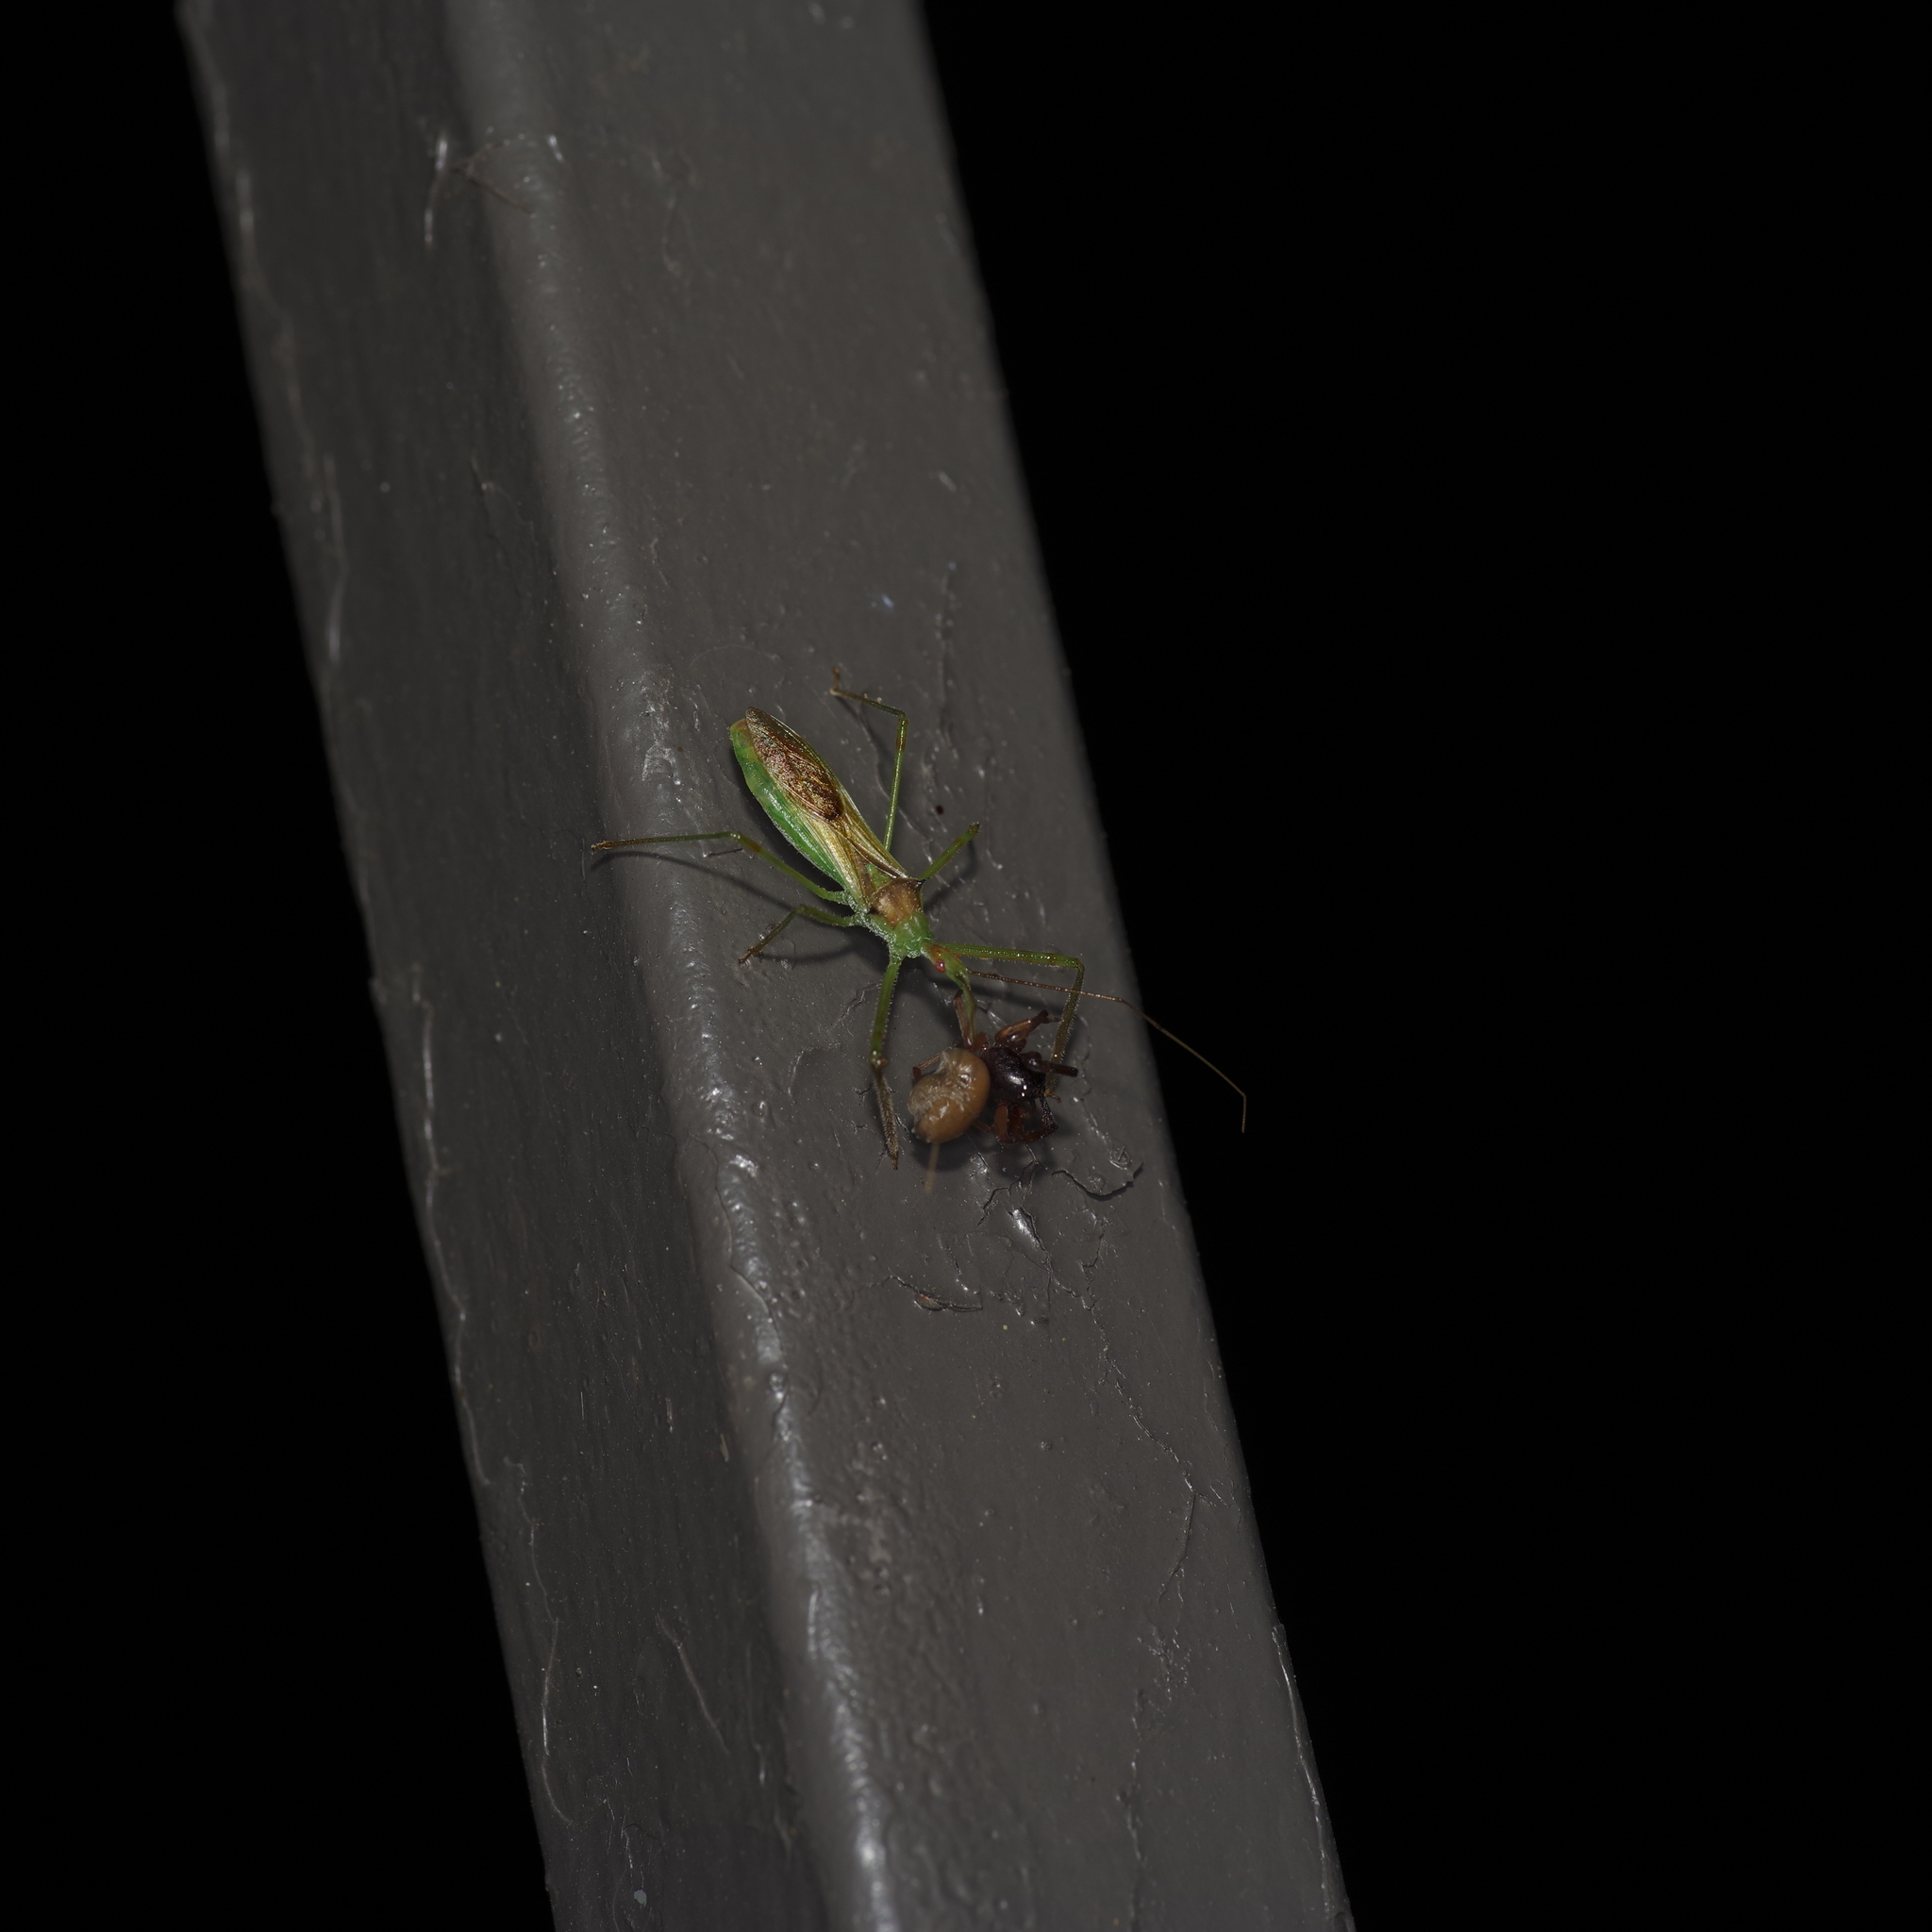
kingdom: Animalia
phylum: Arthropoda
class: Insecta
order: Hemiptera
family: Reduviidae
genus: Zelus
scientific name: Zelus luridus
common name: Pale green assassin bug
